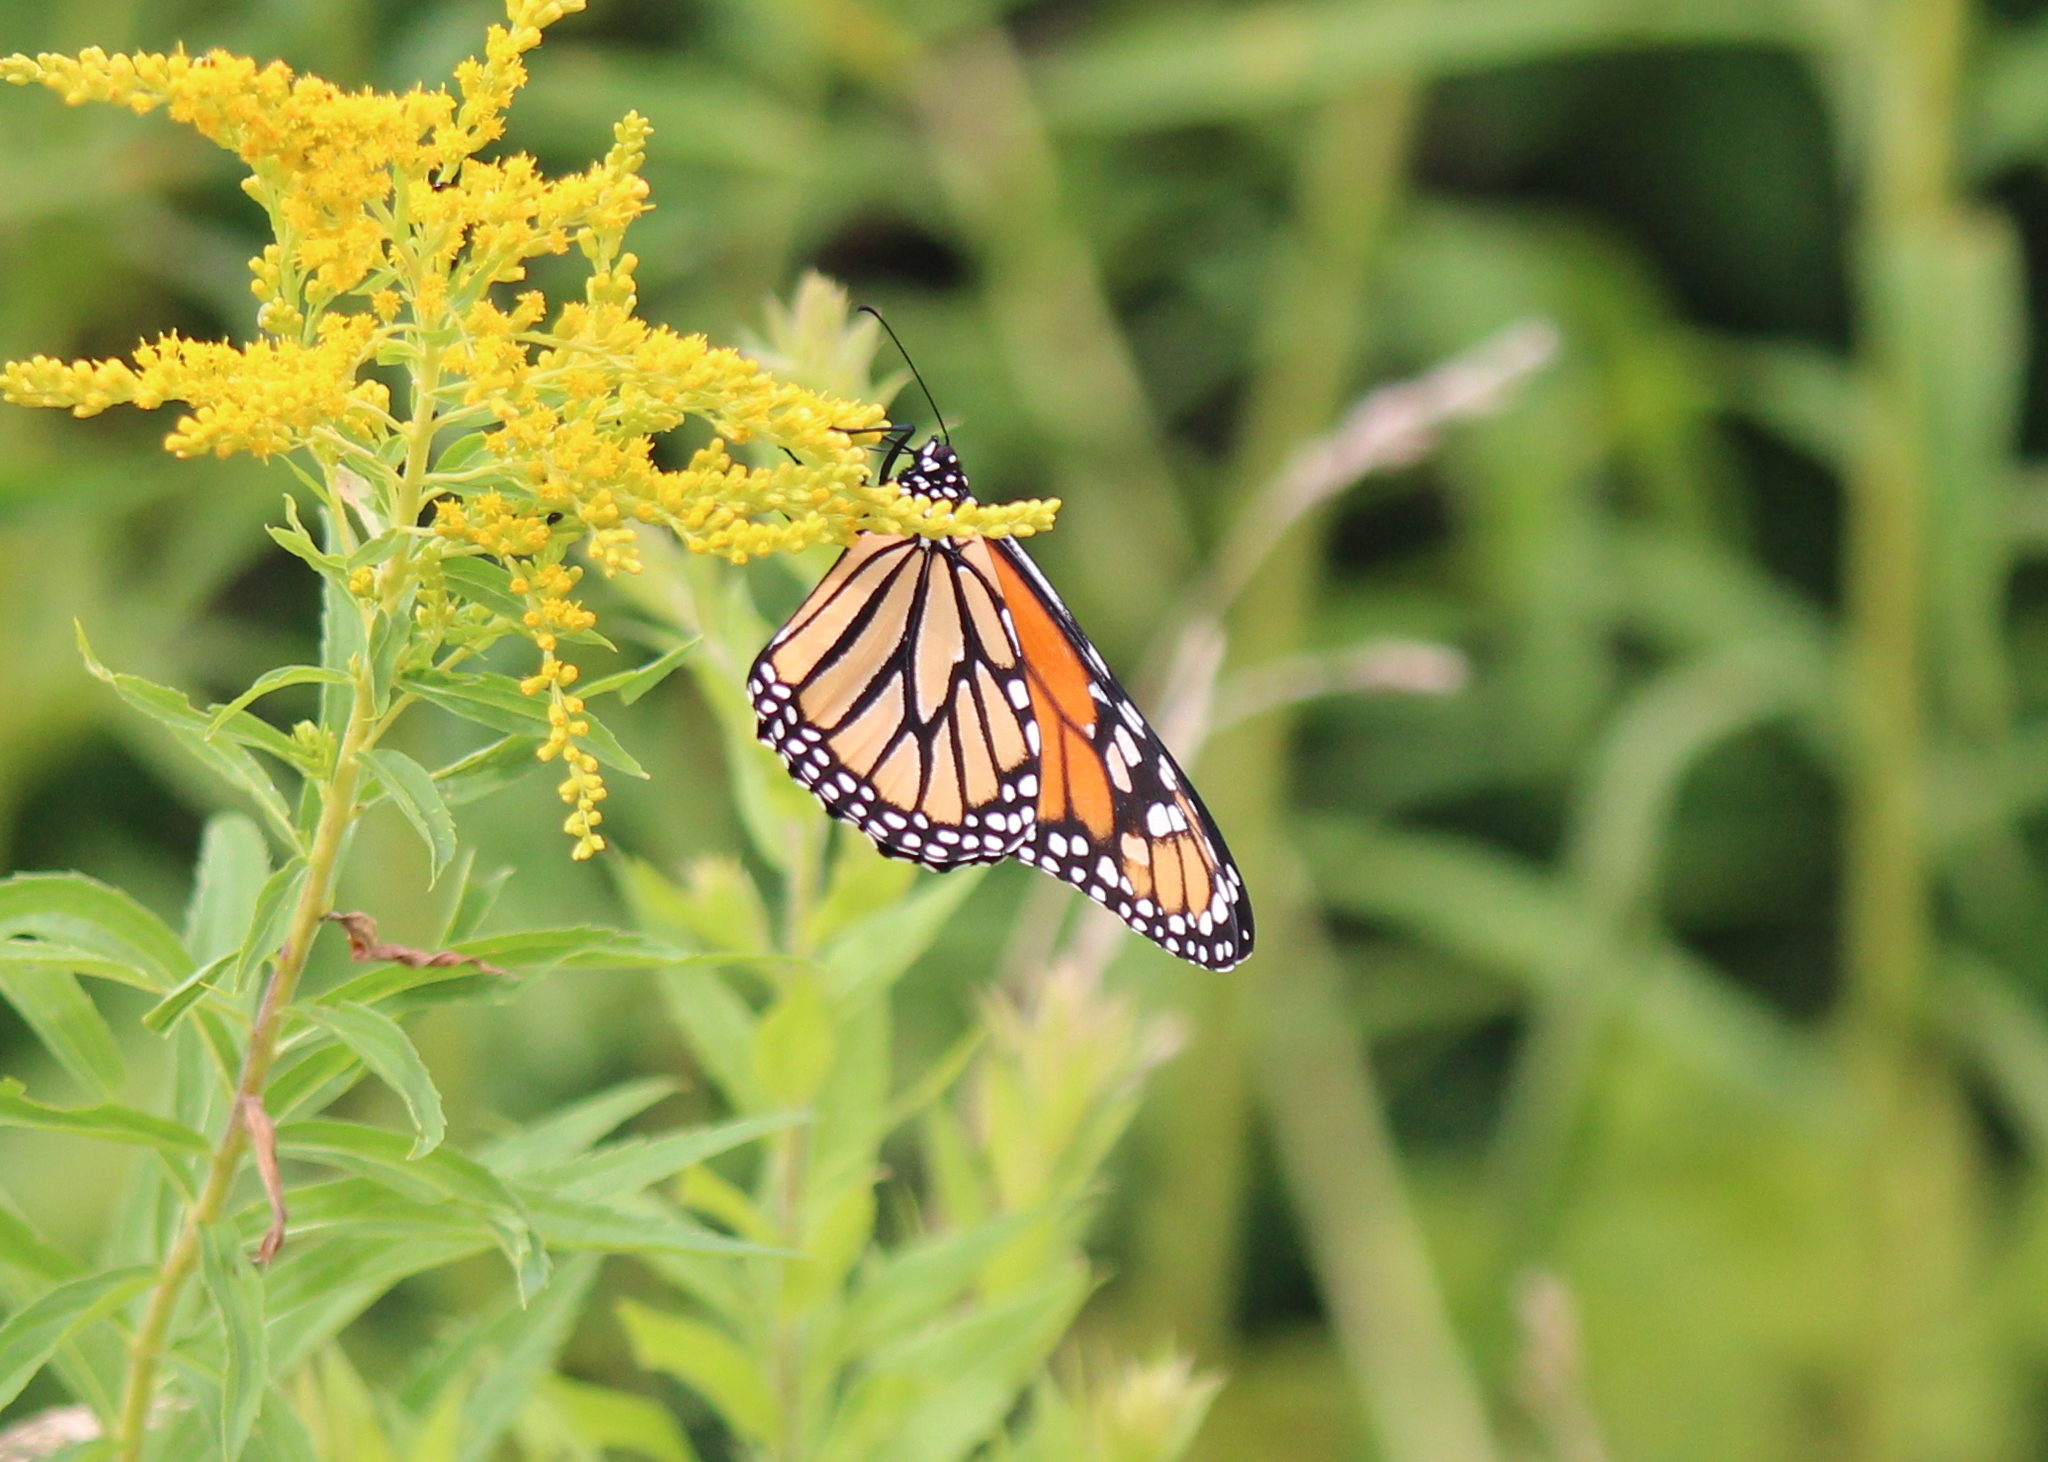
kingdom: Animalia
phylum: Arthropoda
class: Insecta
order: Lepidoptera
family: Nymphalidae
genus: Danaus
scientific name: Danaus plexippus
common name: Monarch
